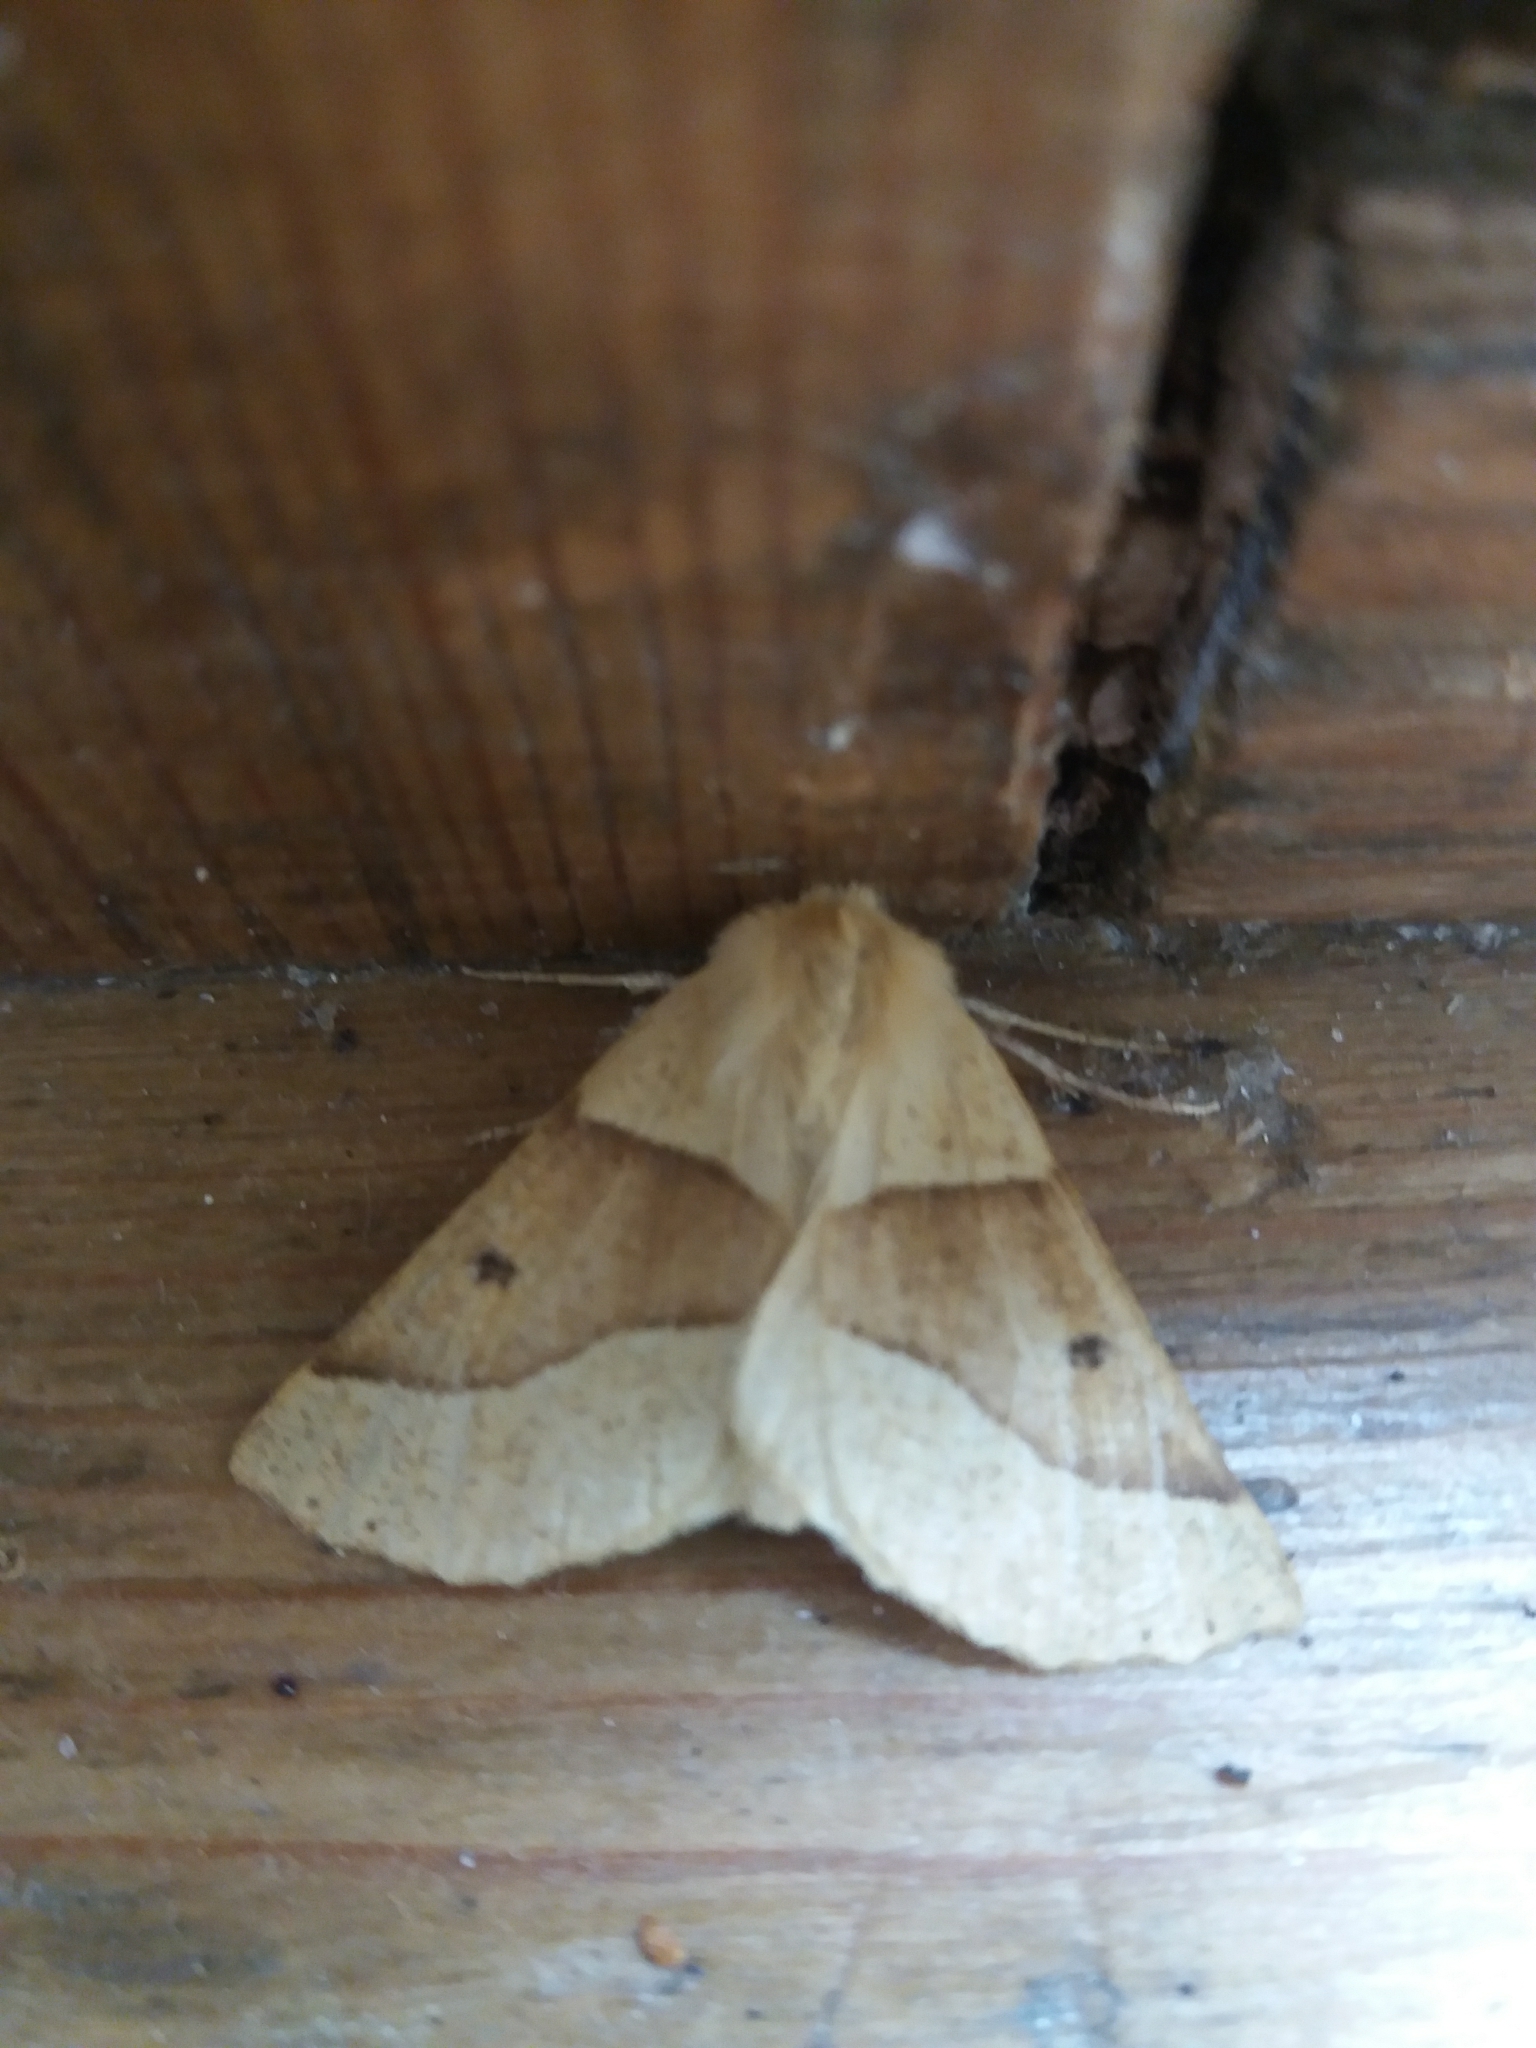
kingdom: Animalia
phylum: Arthropoda
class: Insecta
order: Lepidoptera
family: Geometridae
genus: Crocallis
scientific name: Crocallis elinguaria
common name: Scalloped oak
